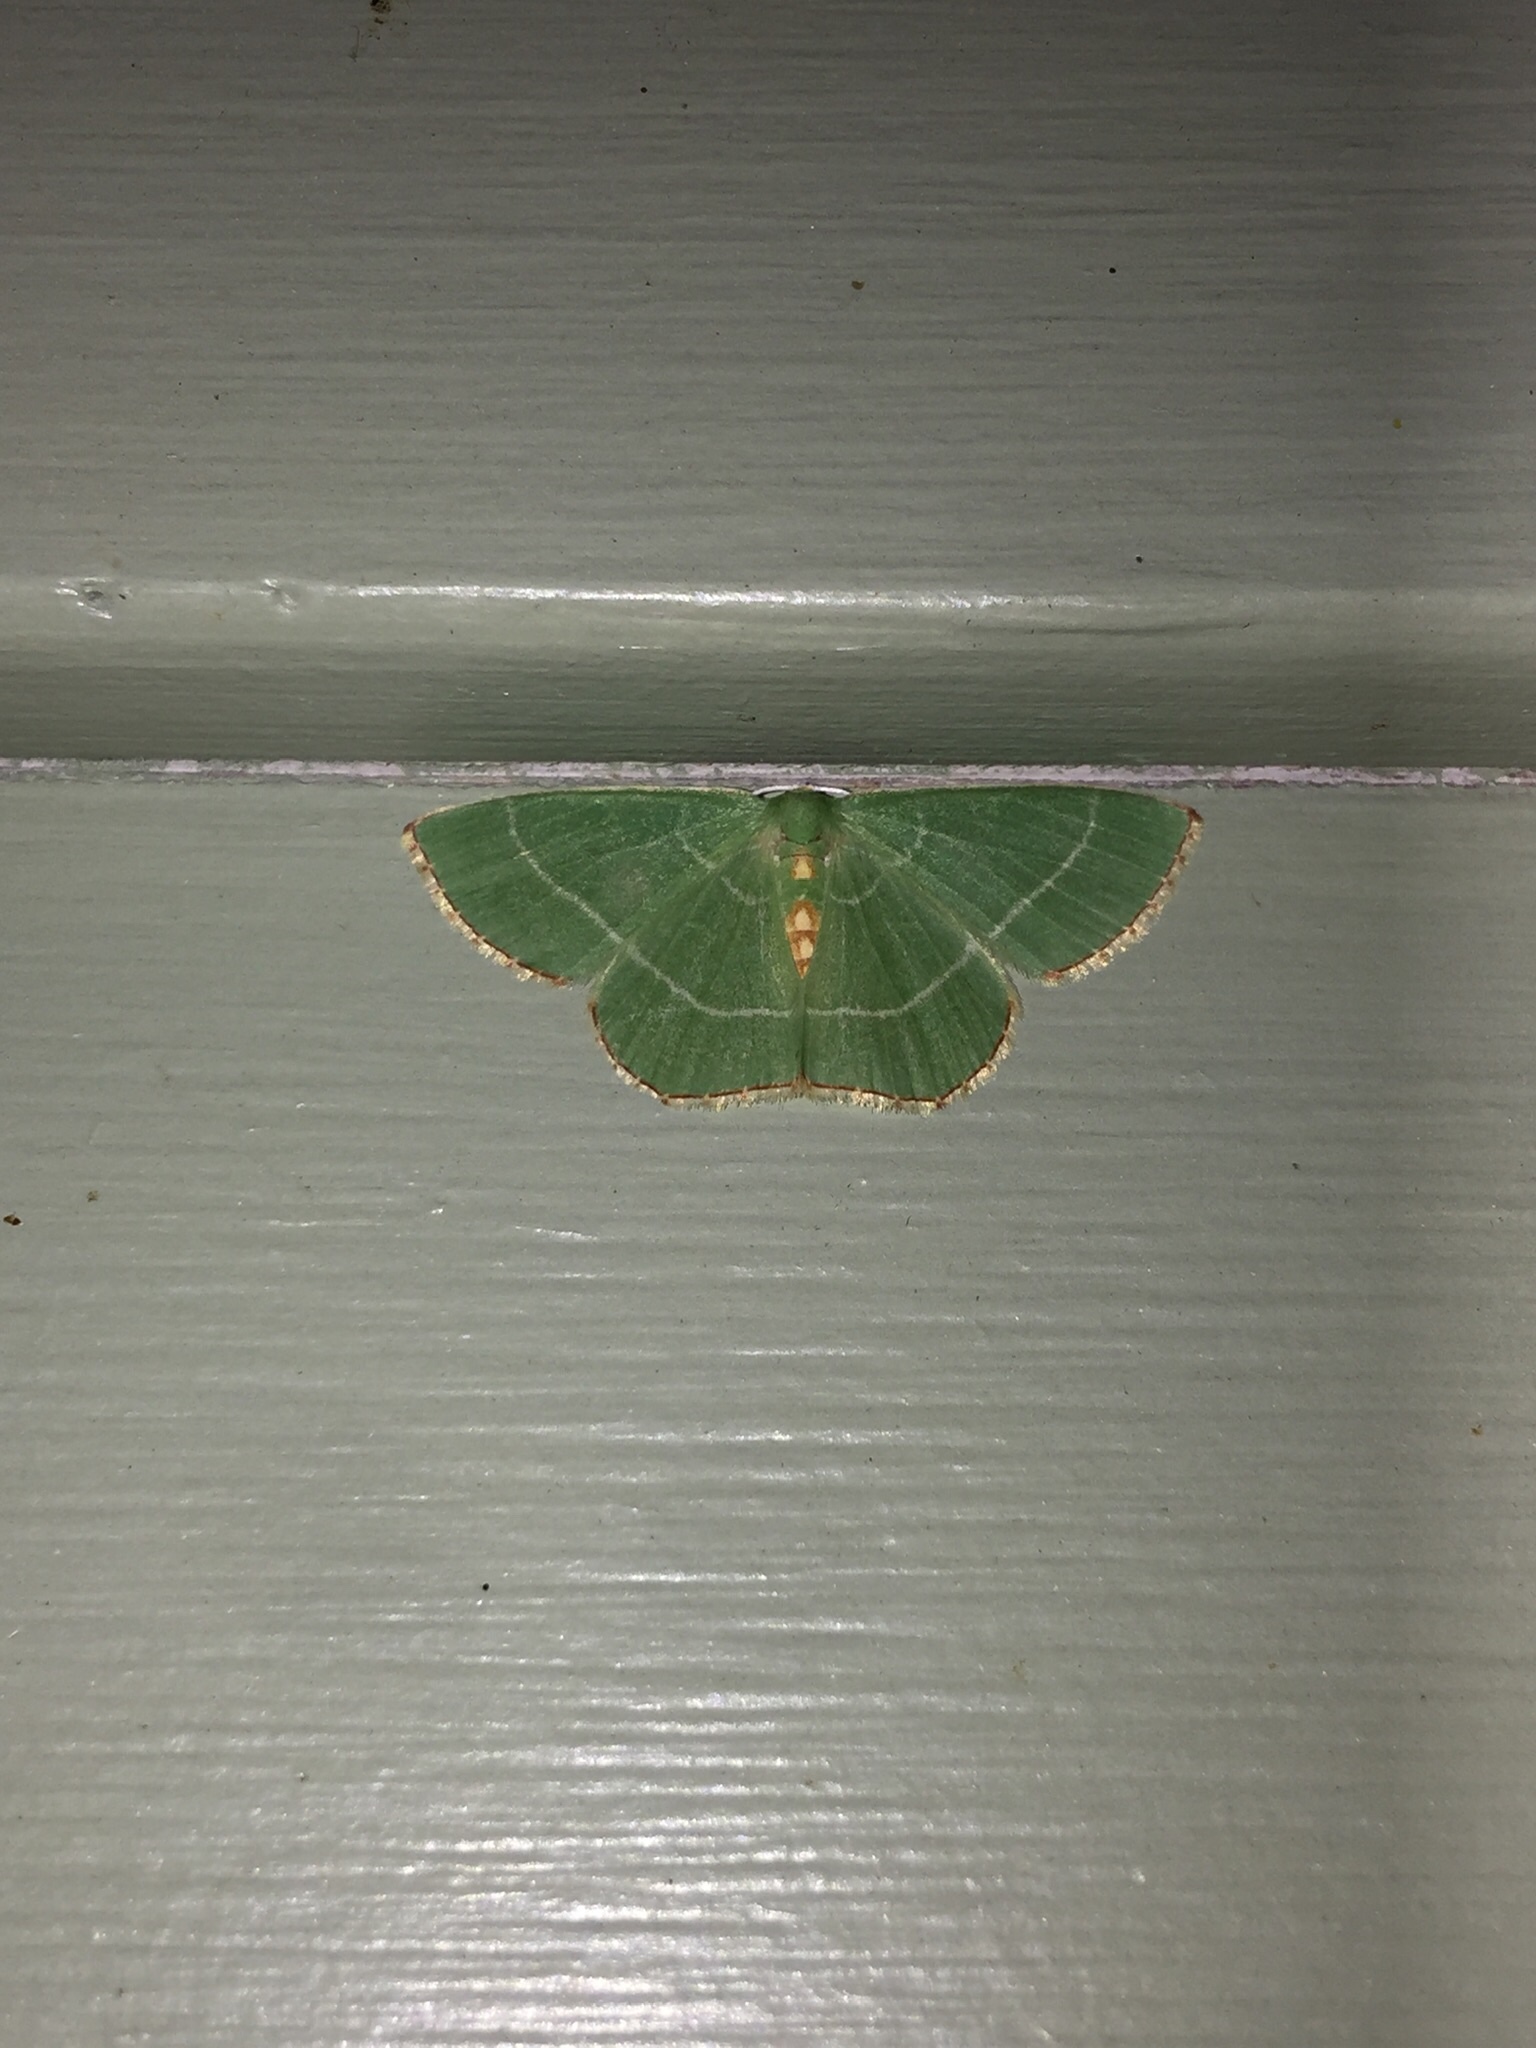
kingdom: Animalia
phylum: Arthropoda
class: Insecta
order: Lepidoptera
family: Geometridae
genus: Nemoria
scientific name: Nemoria bistriaria
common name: Red-fringed emerald
